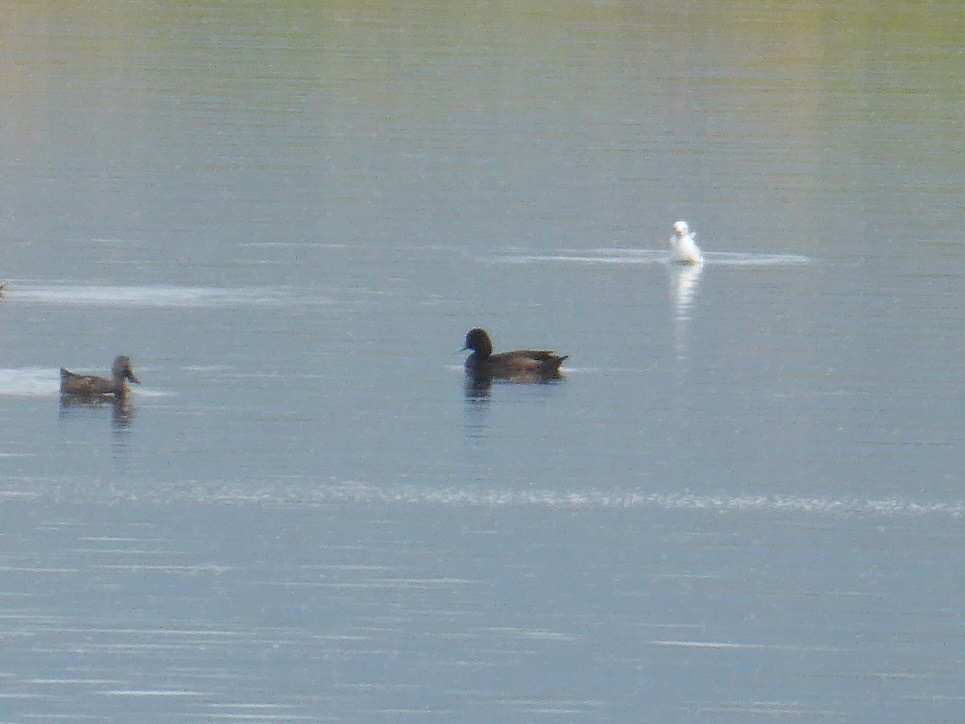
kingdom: Animalia
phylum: Chordata
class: Aves
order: Anseriformes
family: Anatidae
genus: Netta
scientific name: Netta erythrophthalma
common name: Southern pochard
